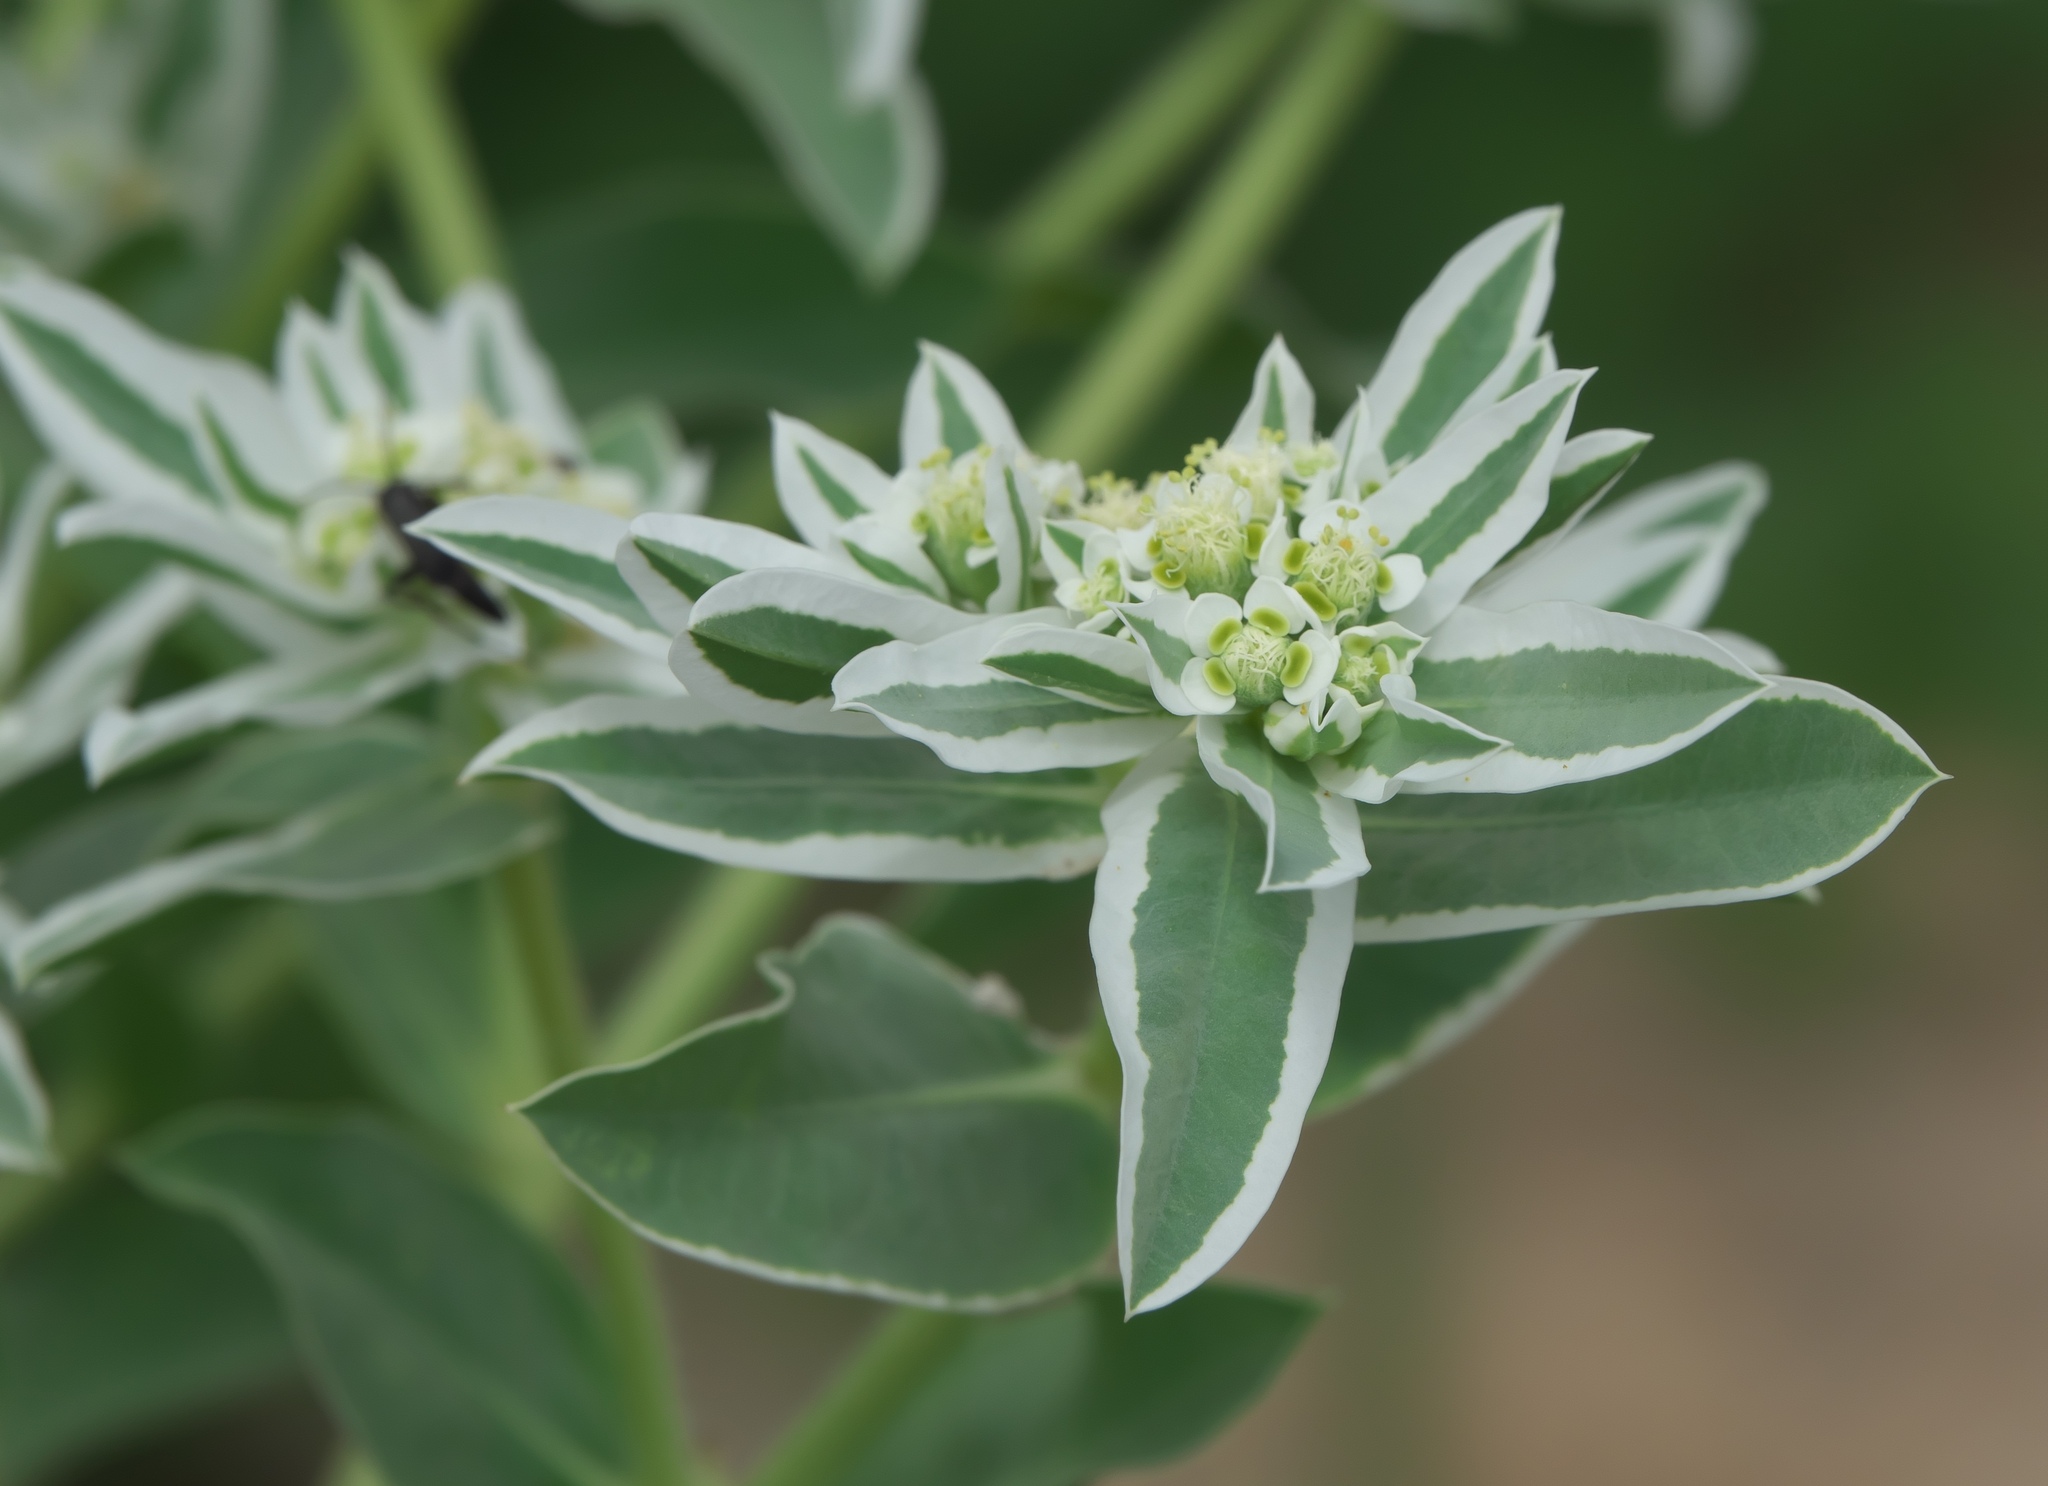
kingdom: Plantae
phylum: Tracheophyta
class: Magnoliopsida
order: Malpighiales
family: Euphorbiaceae
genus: Euphorbia
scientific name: Euphorbia marginata
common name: Ghostweed
